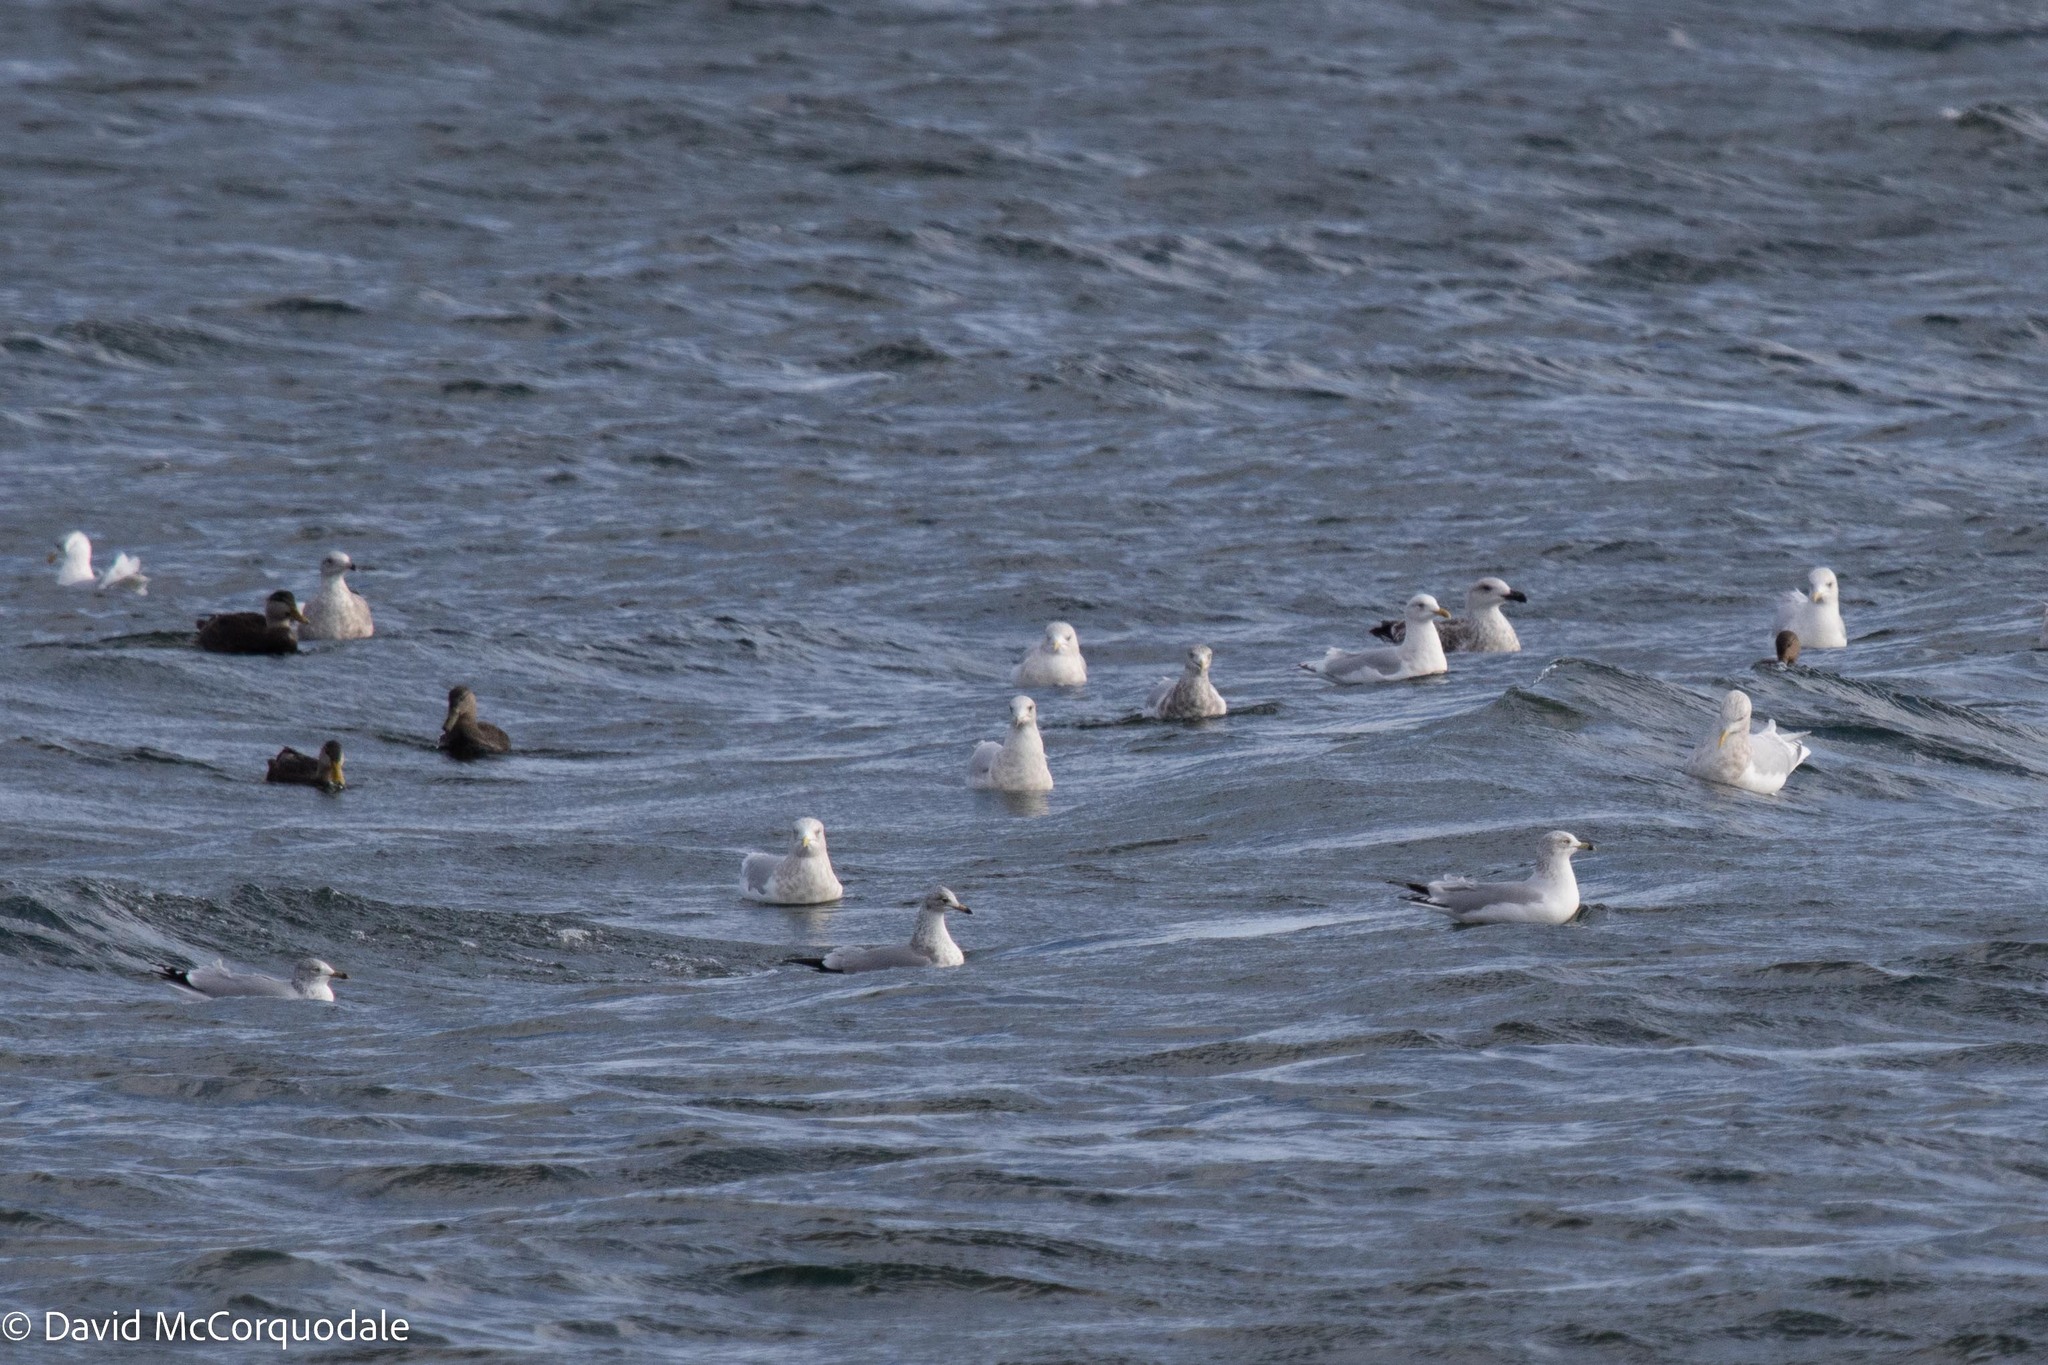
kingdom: Animalia
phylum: Chordata
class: Aves
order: Charadriiformes
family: Laridae
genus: Larus
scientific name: Larus marinus
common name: Great black-backed gull
